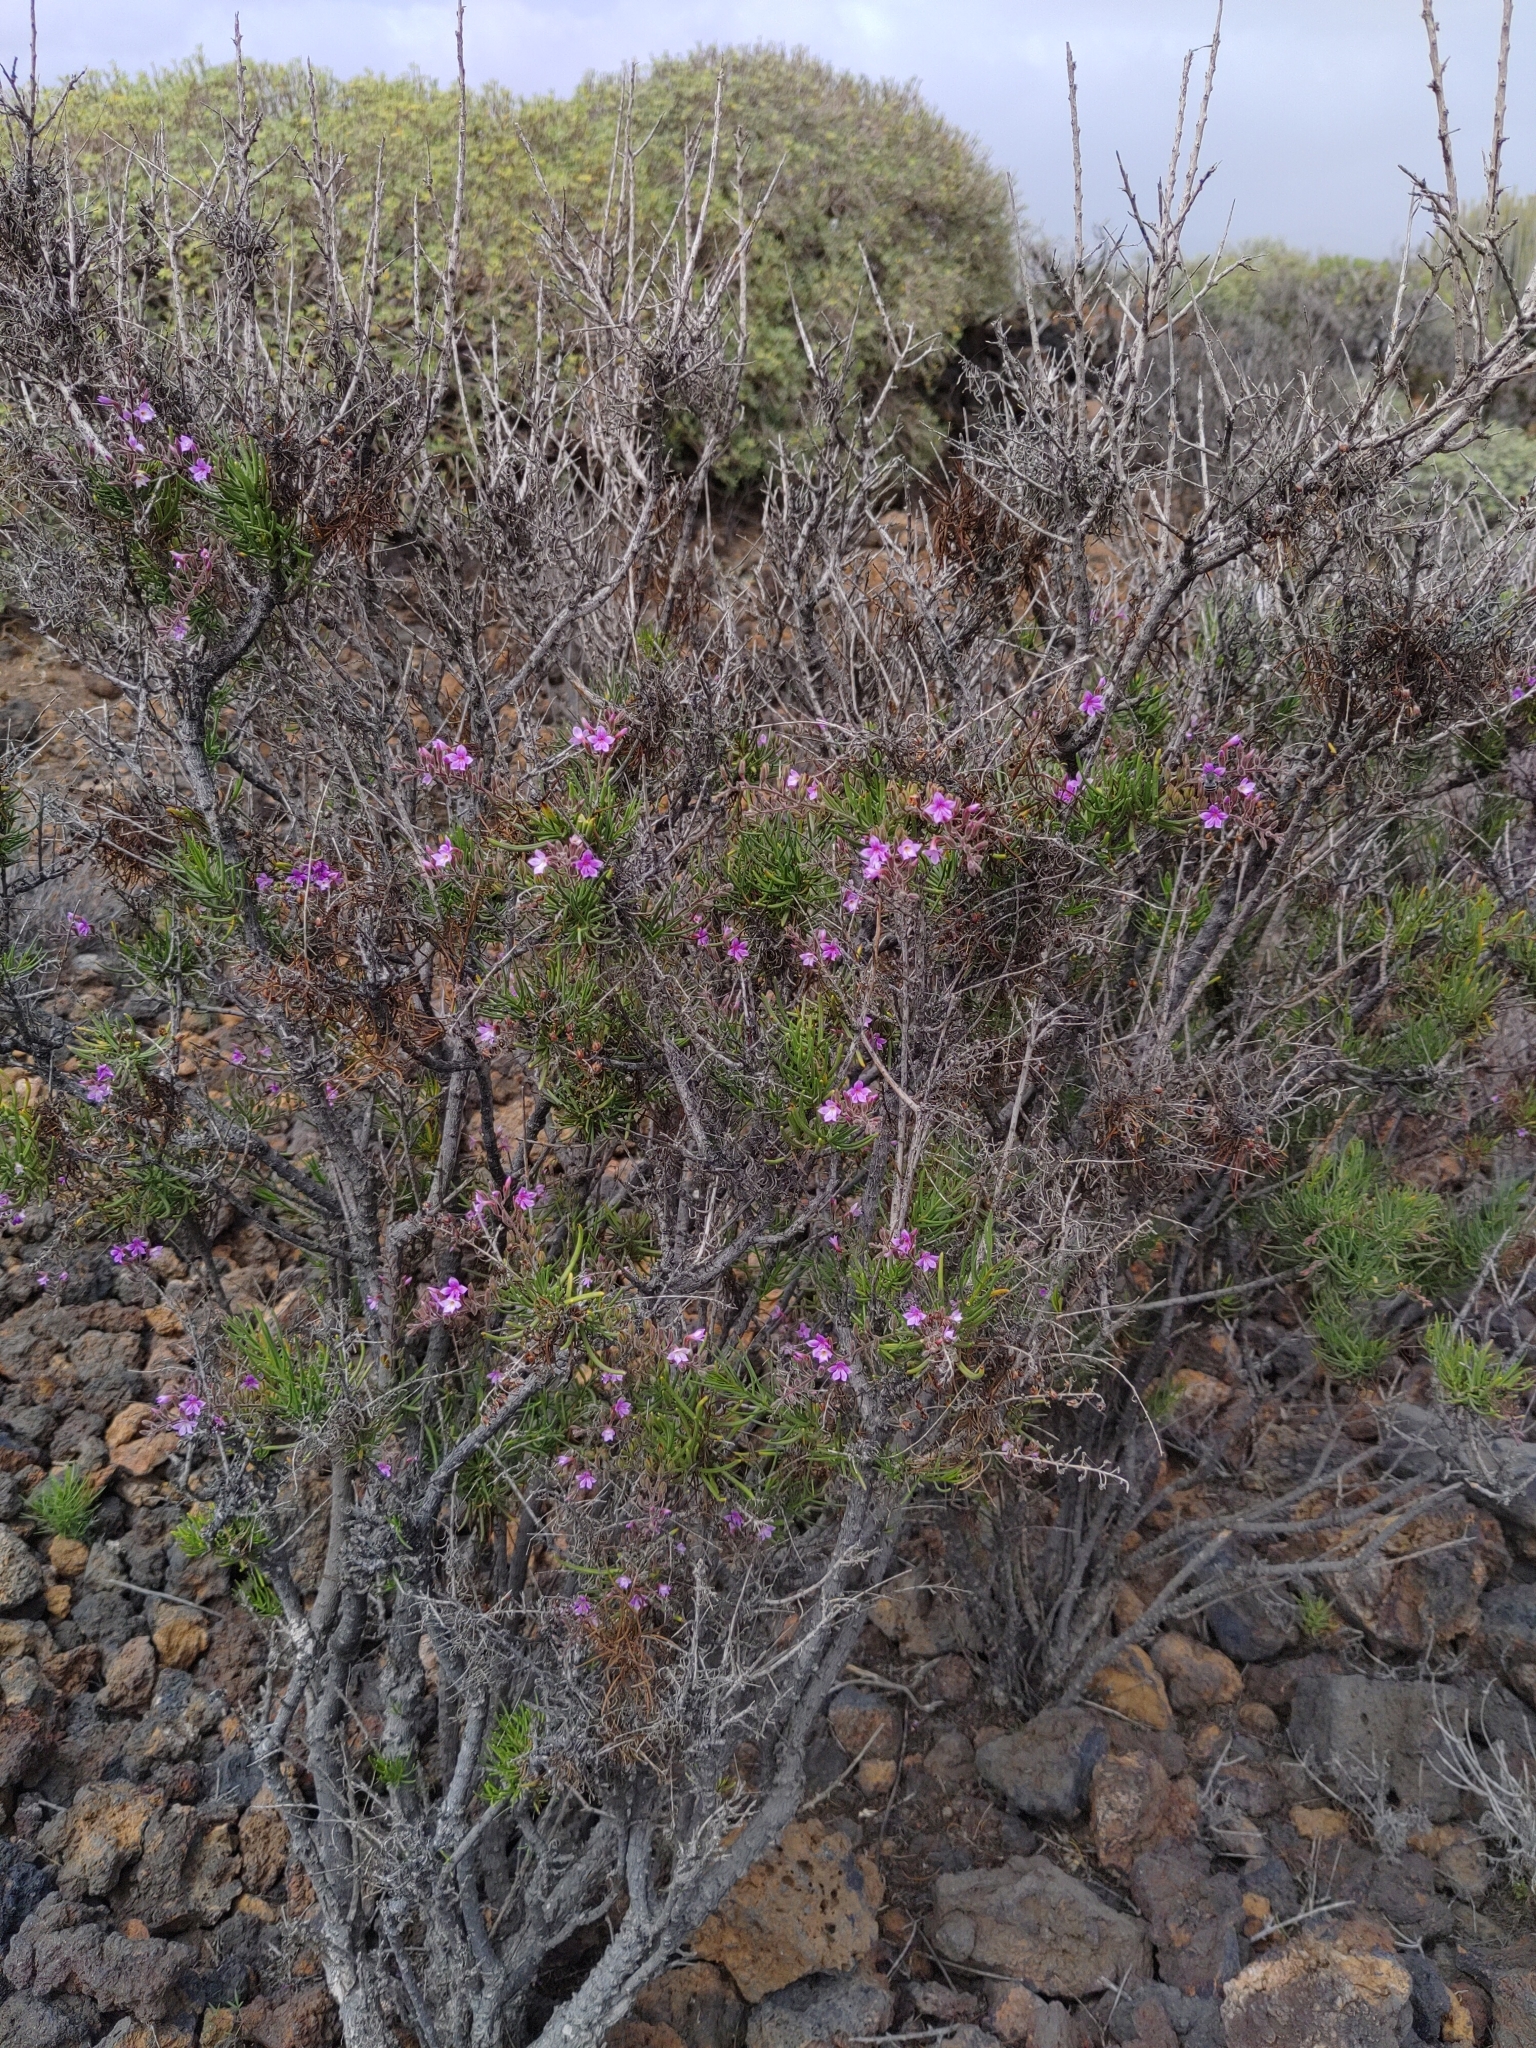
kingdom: Plantae
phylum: Tracheophyta
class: Magnoliopsida
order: Lamiales
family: Plantaginaceae
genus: Campylanthus
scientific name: Campylanthus salsoloides
